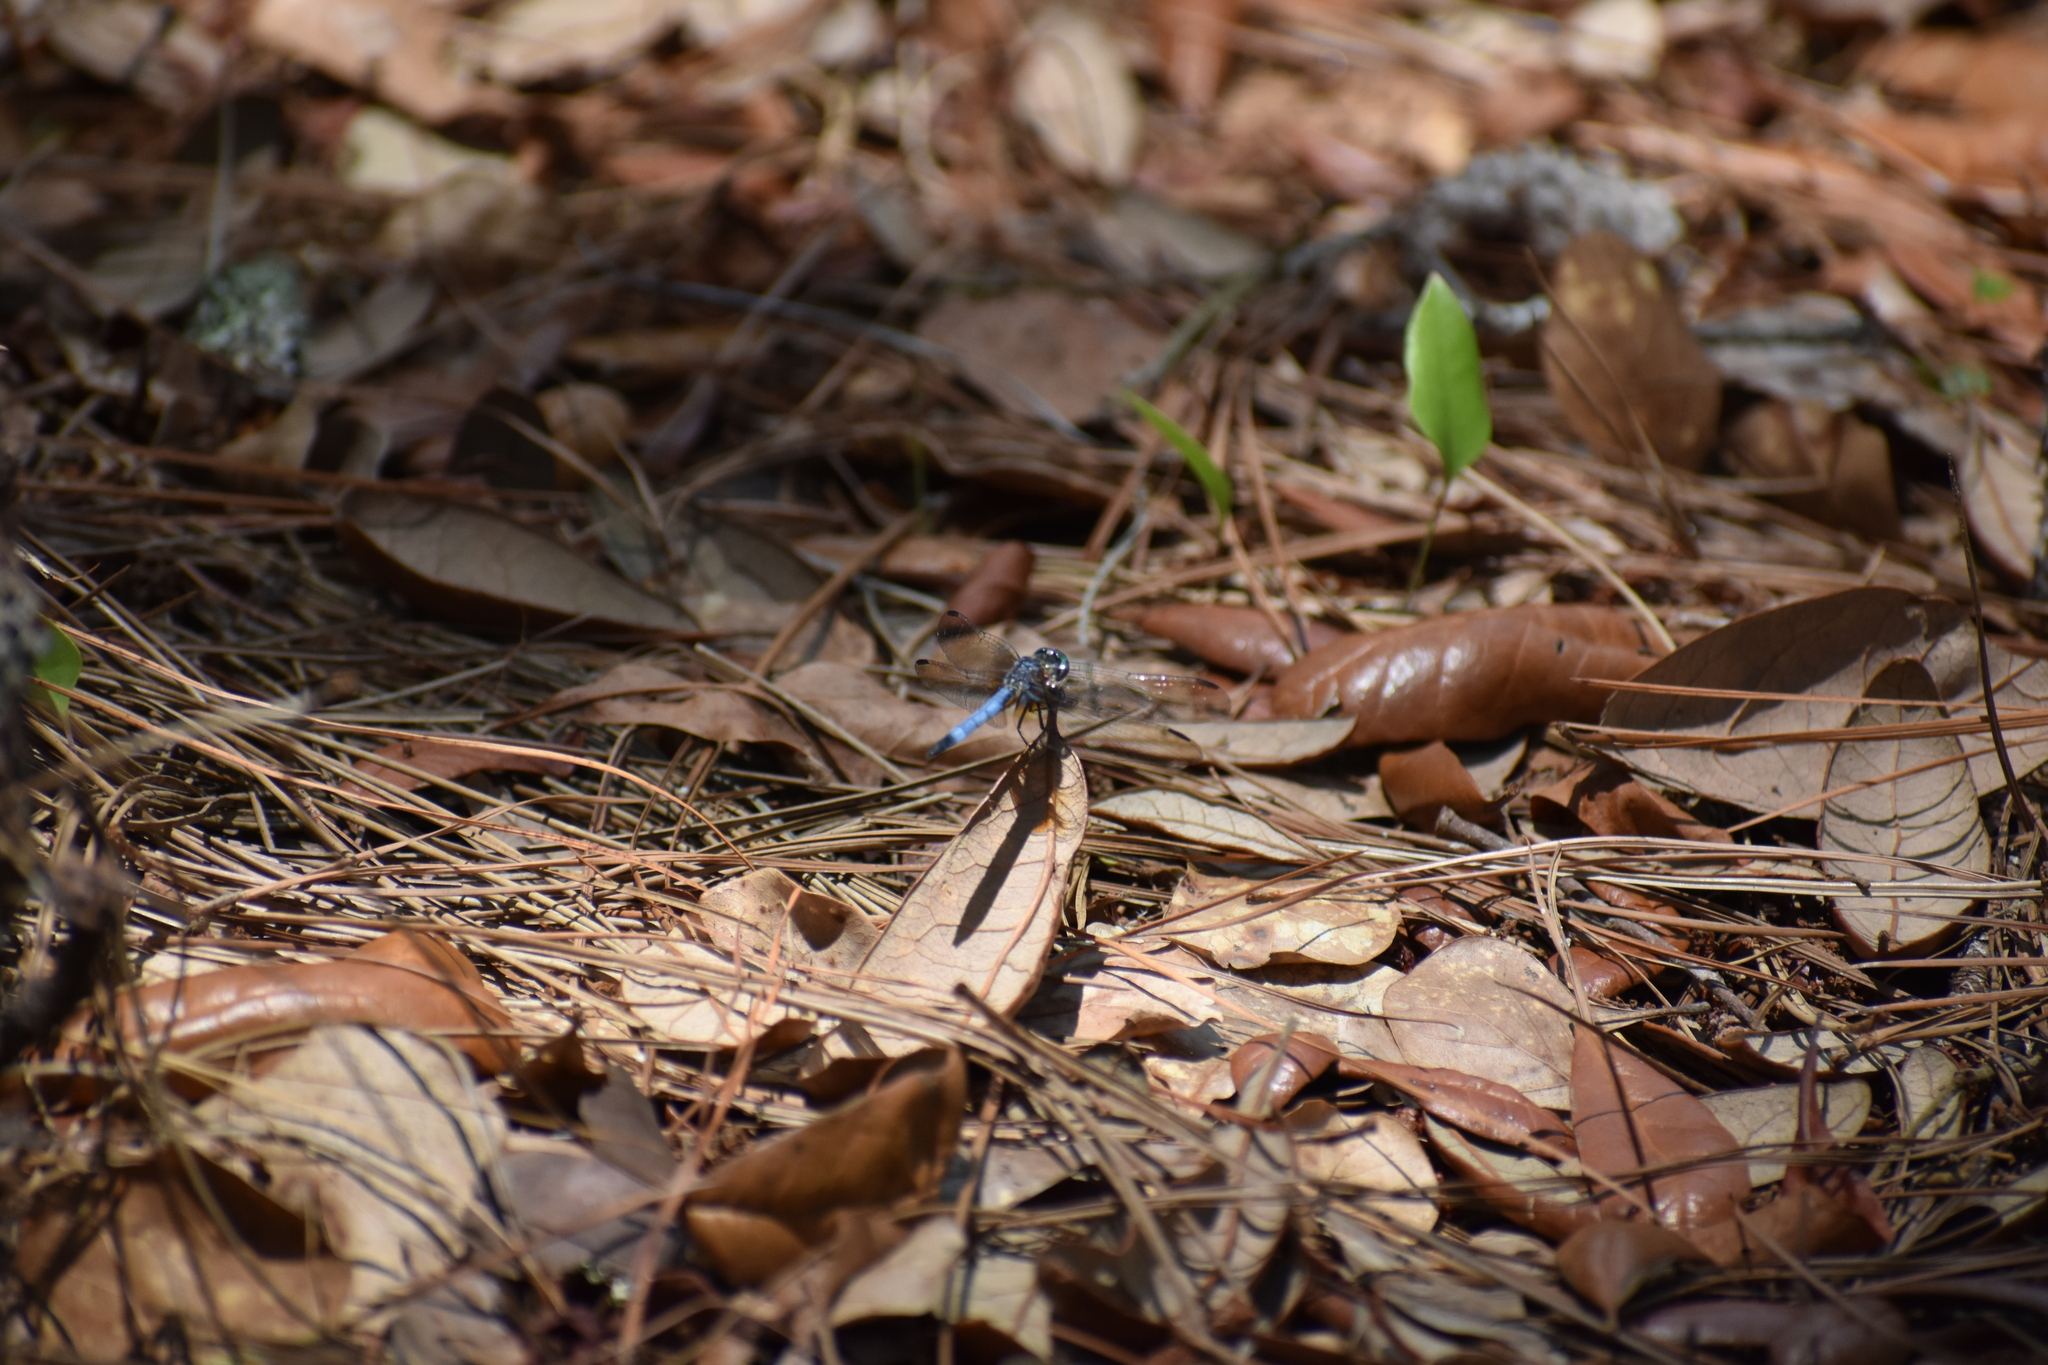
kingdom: Animalia
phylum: Arthropoda
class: Insecta
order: Odonata
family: Libellulidae
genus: Pachydiplax
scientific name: Pachydiplax longipennis
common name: Blue dasher
